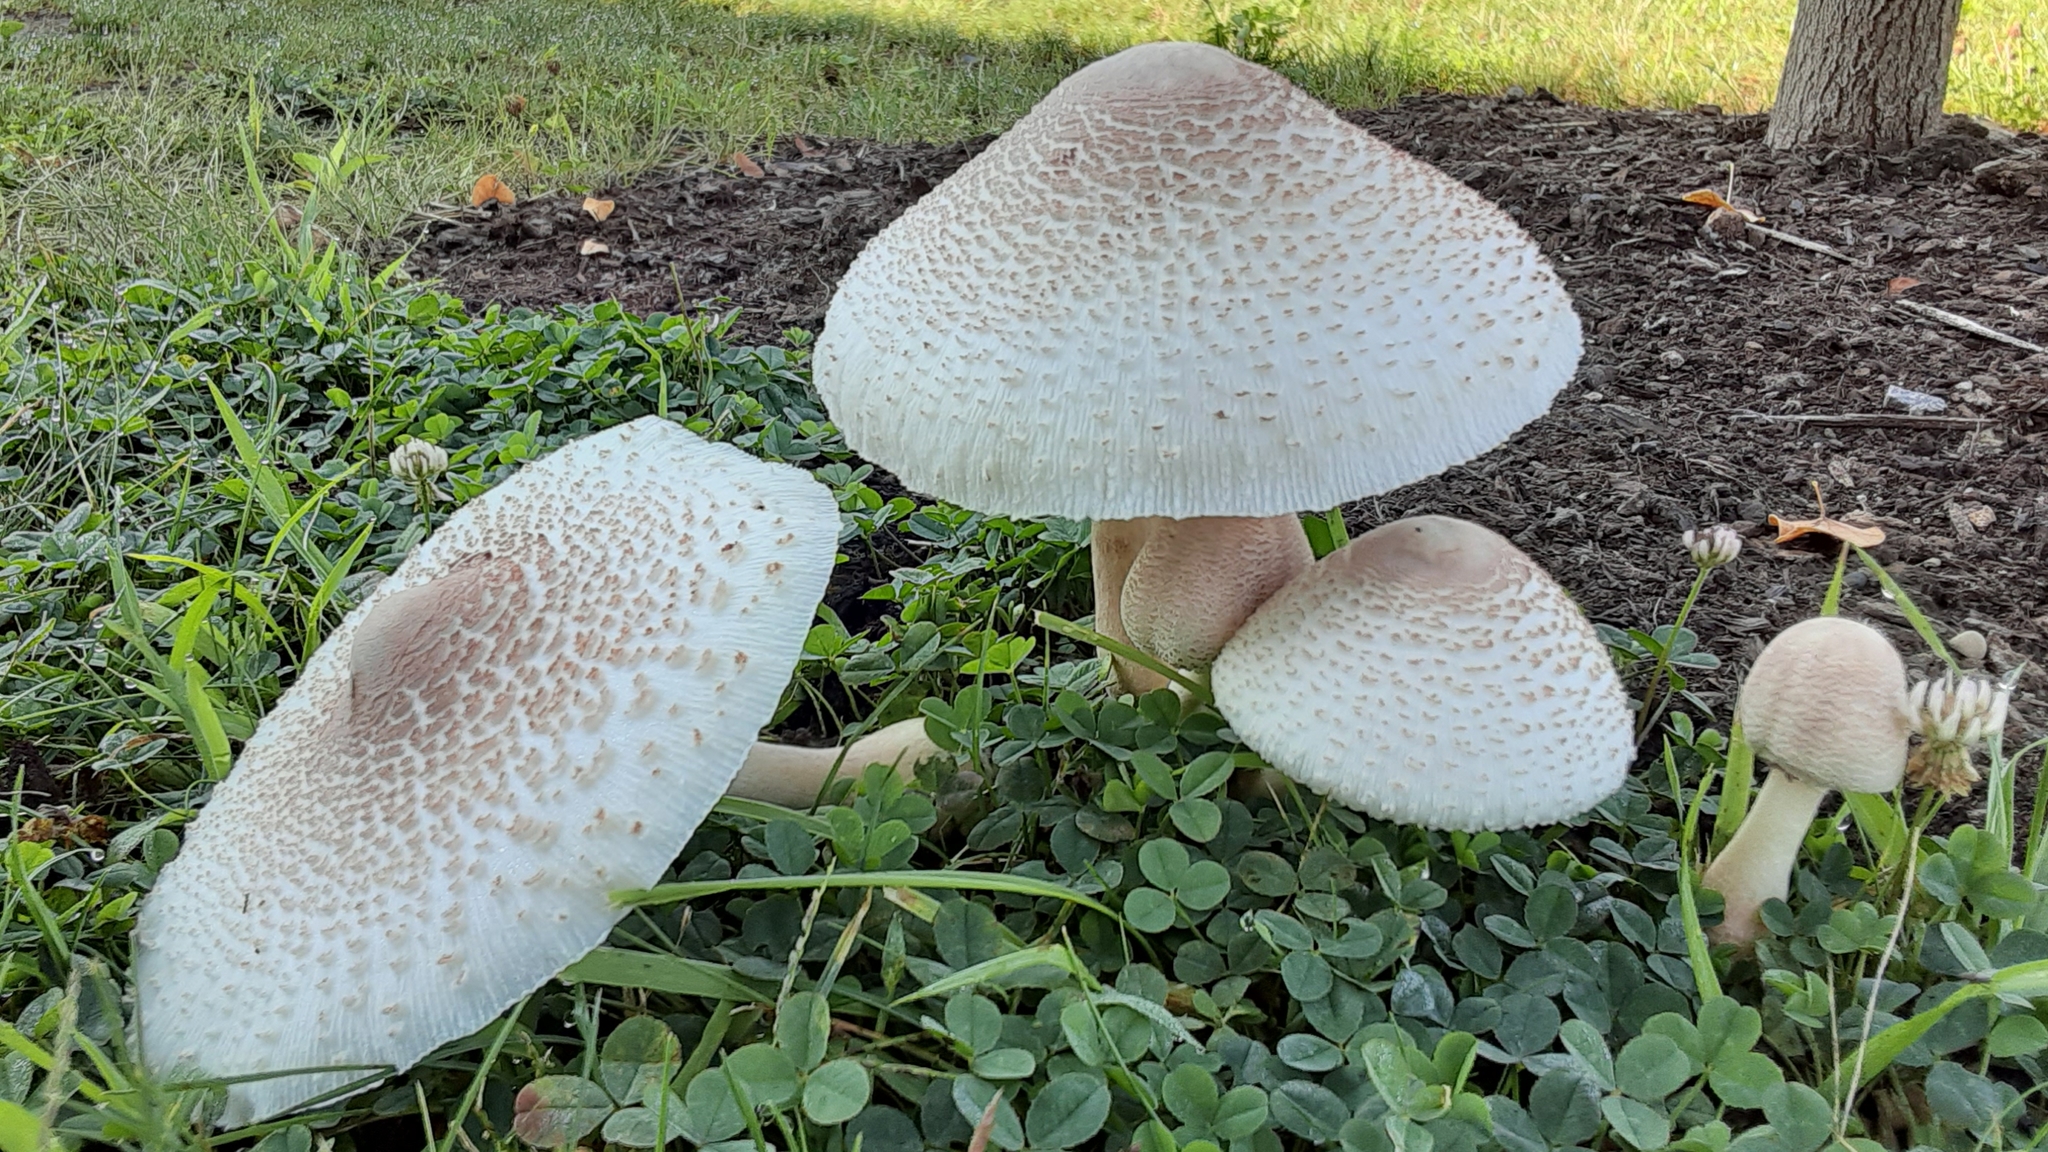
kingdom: Fungi
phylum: Basidiomycota
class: Agaricomycetes
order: Agaricales
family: Agaricaceae
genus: Leucoagaricus
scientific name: Leucoagaricus americanus
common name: Reddening lepiota
